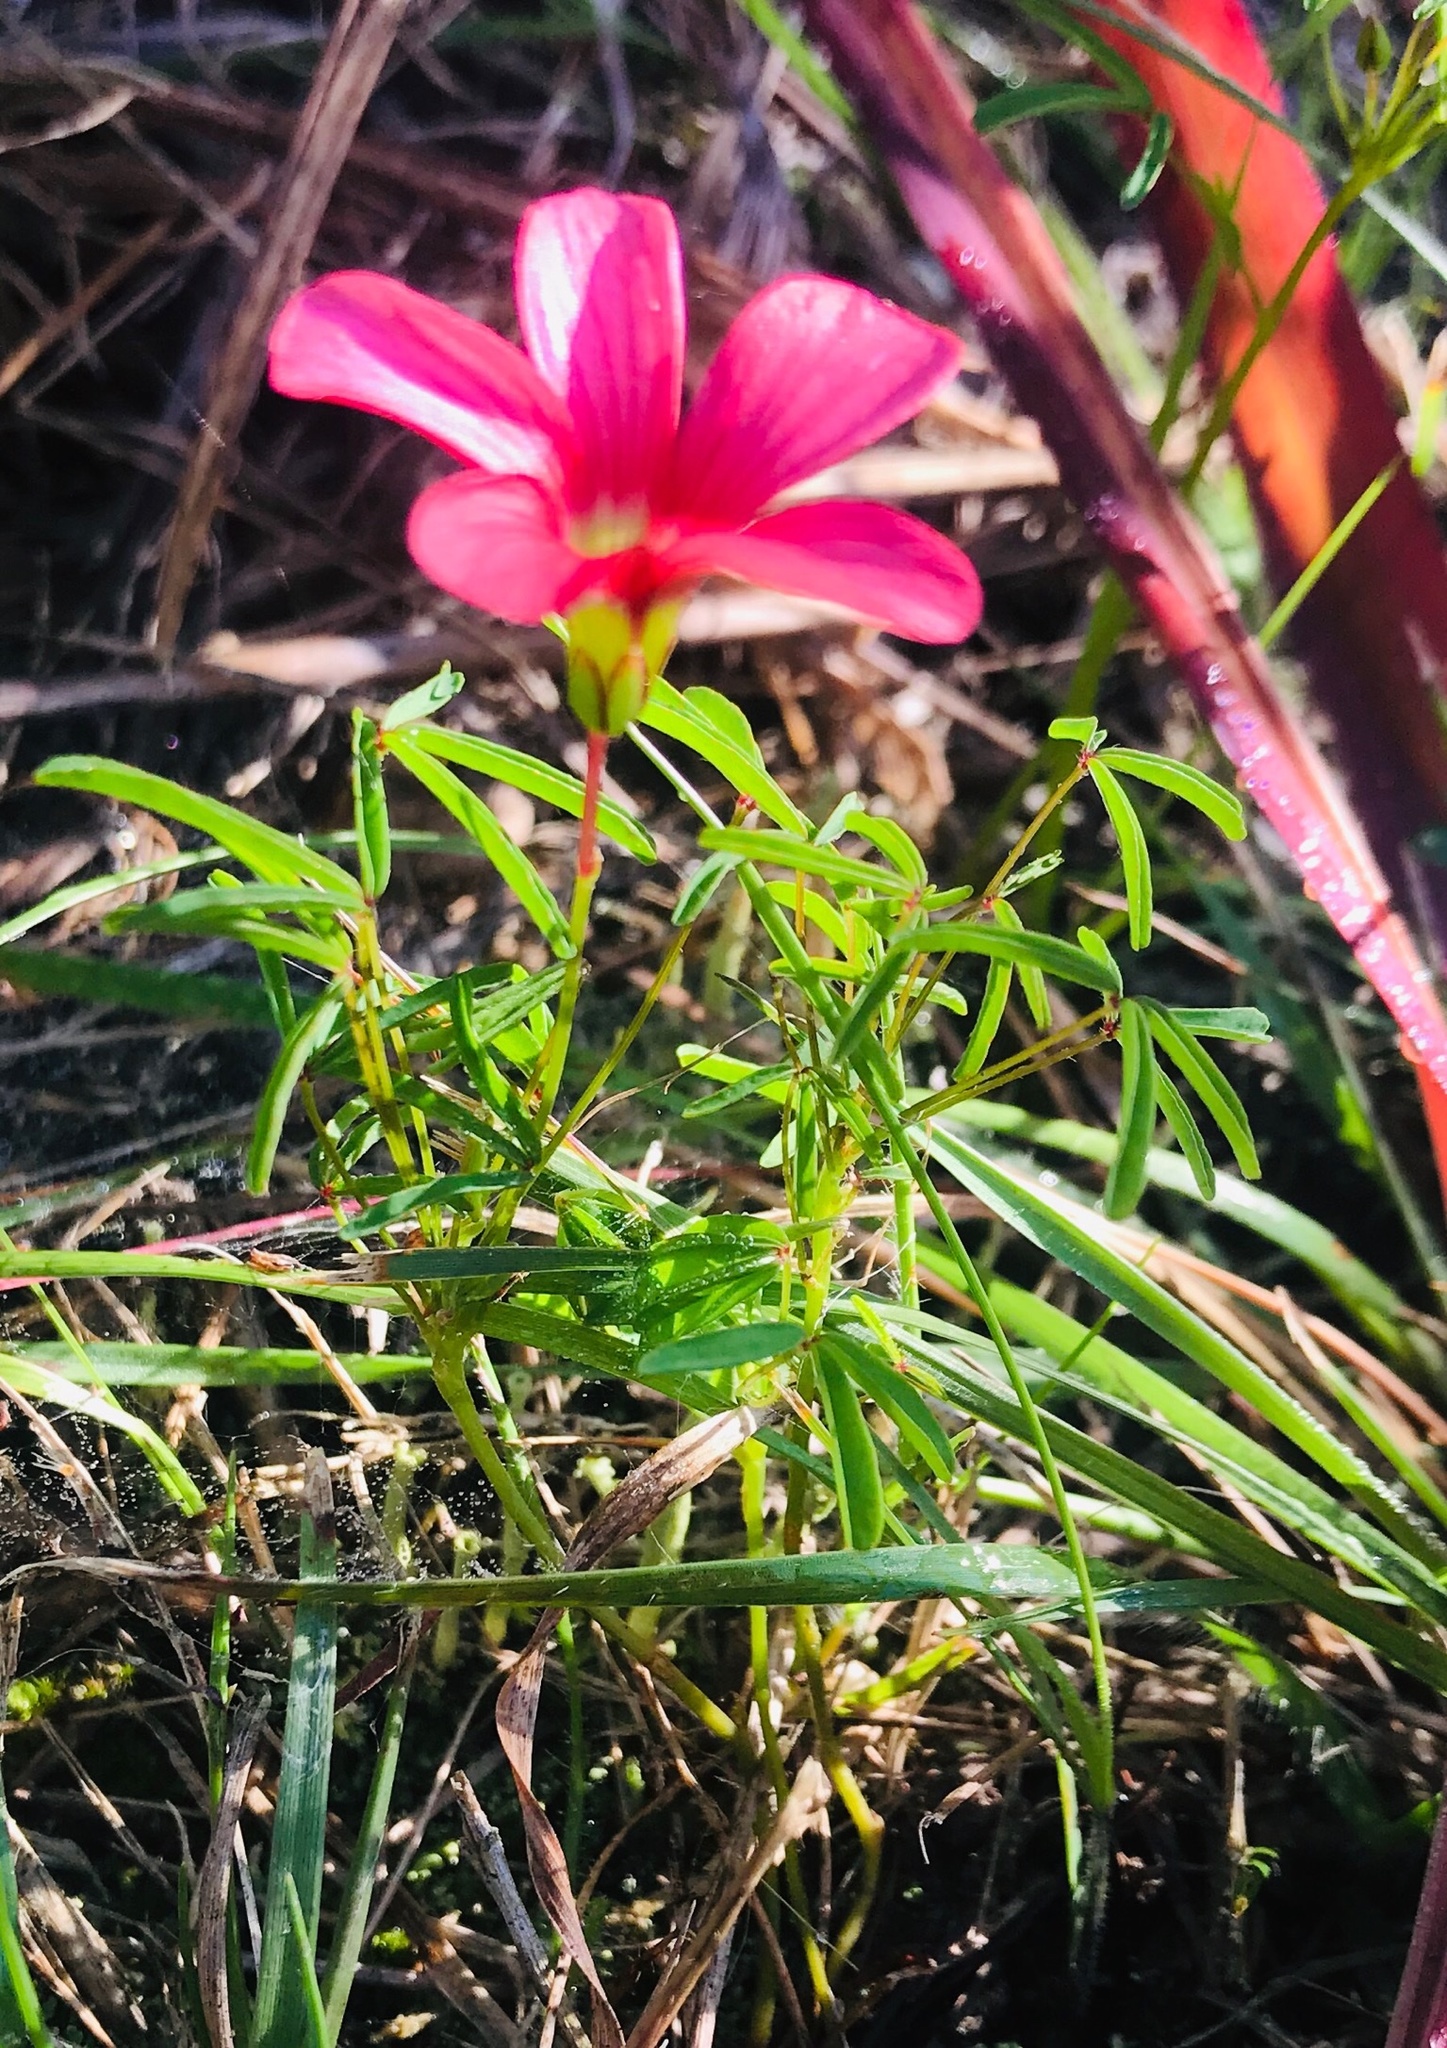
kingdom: Plantae
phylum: Tracheophyta
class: Magnoliopsida
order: Oxalidales
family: Oxalidaceae
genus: Oxalis
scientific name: Oxalis pendulifolia
